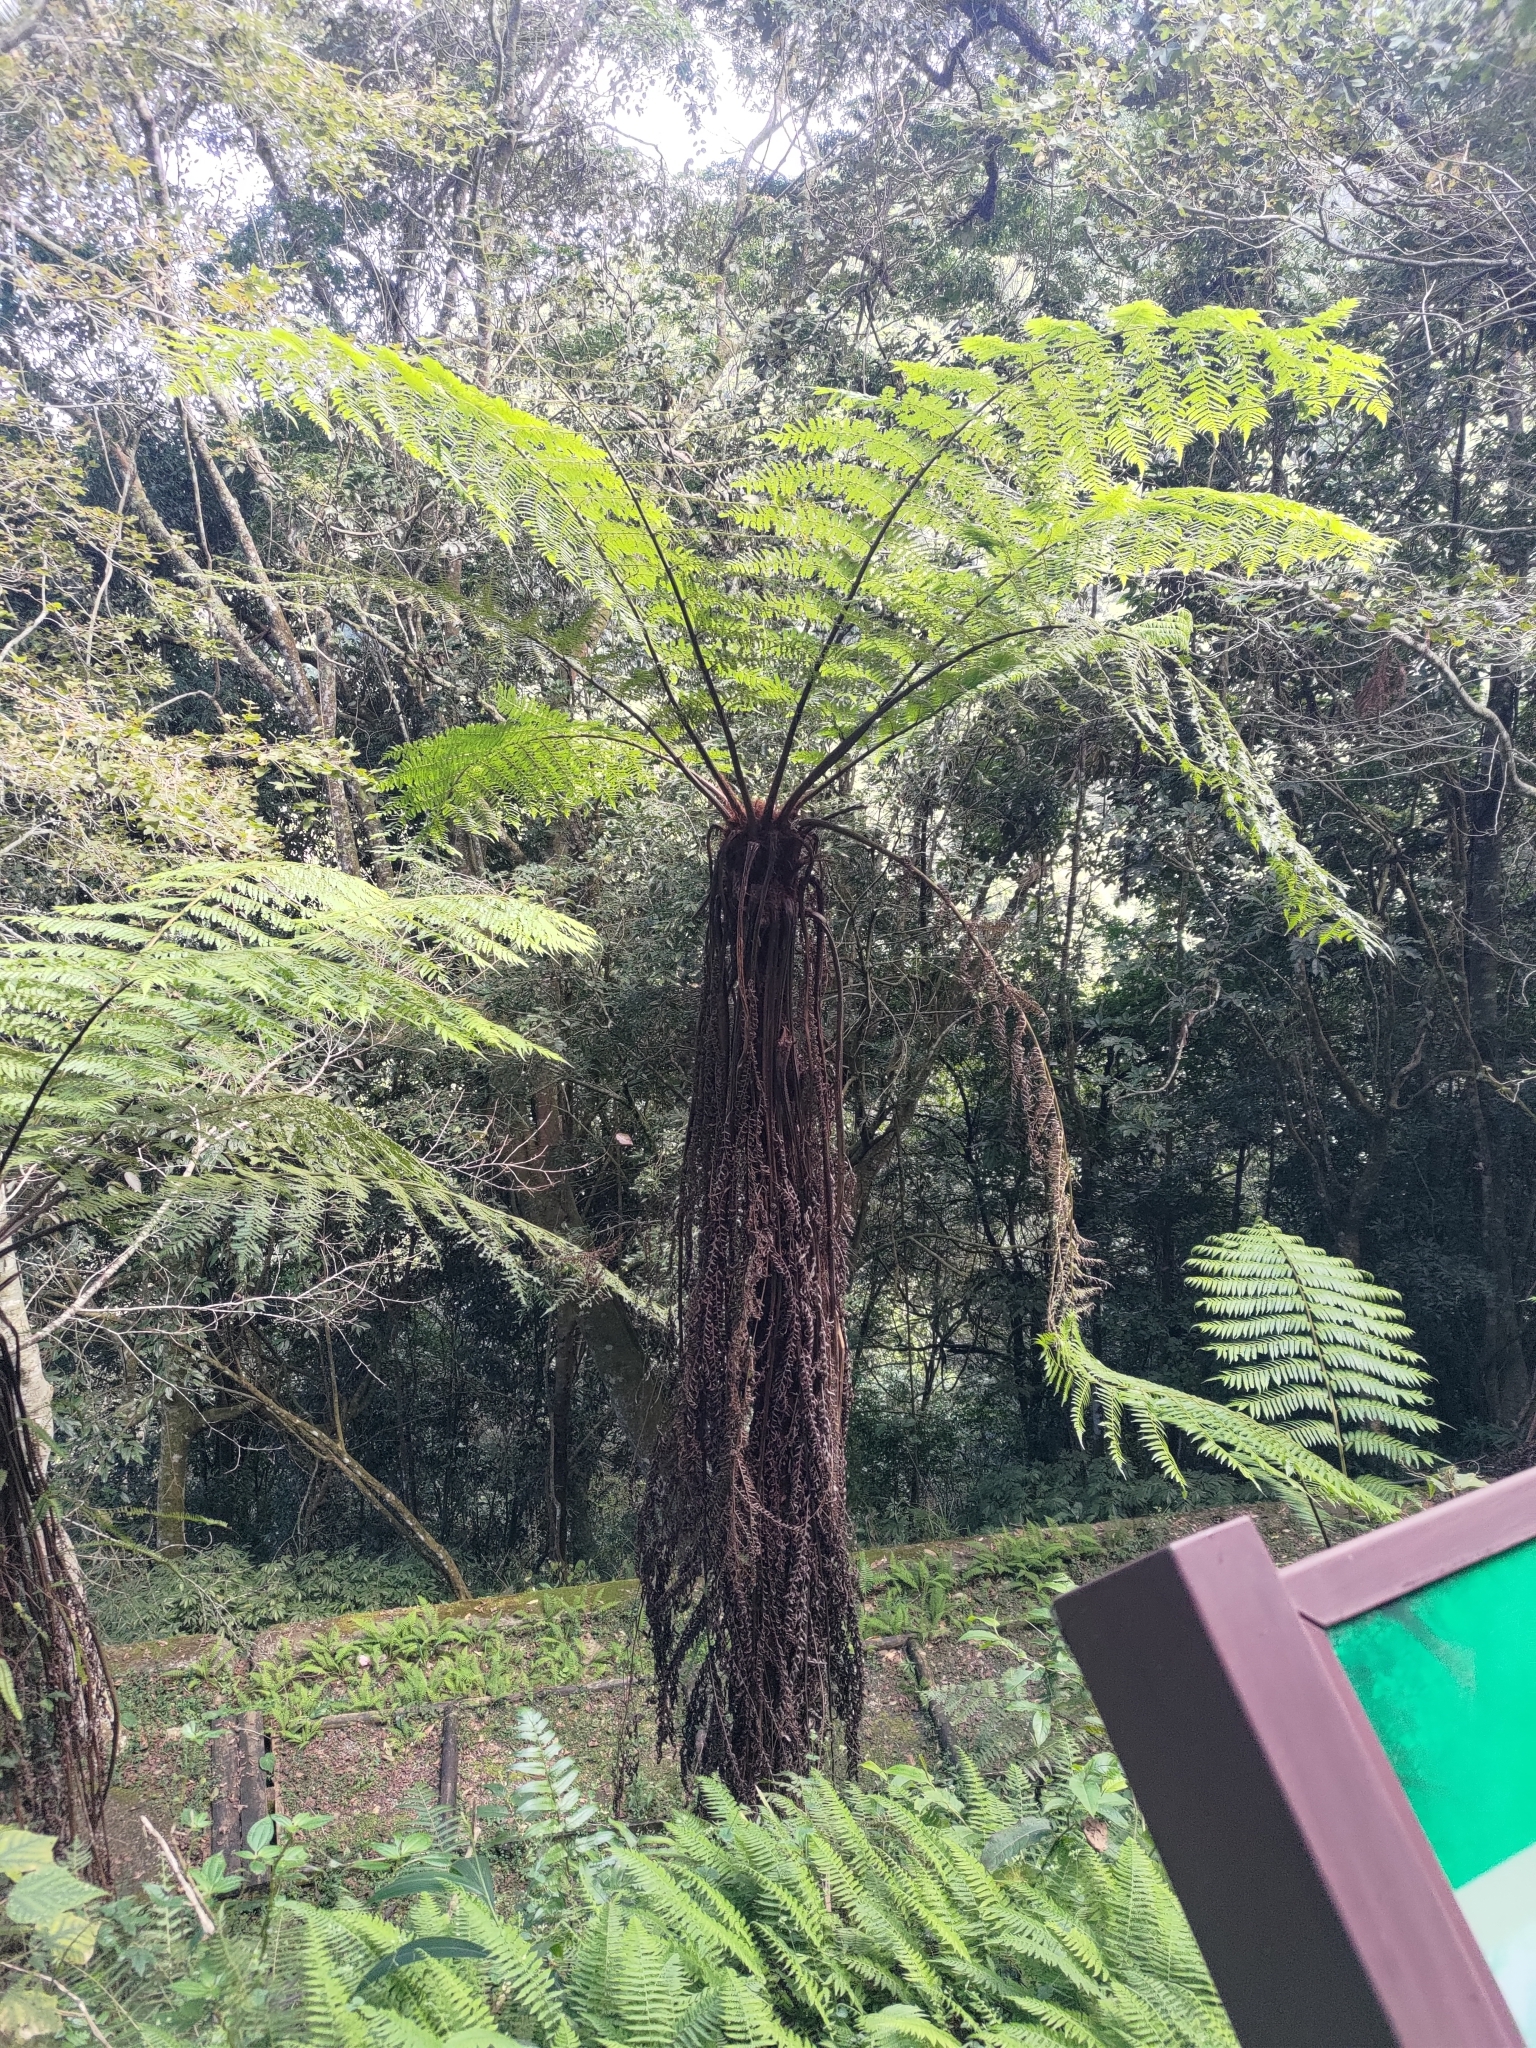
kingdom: Plantae
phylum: Tracheophyta
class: Polypodiopsida
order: Cyatheales
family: Cyatheaceae
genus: Alsophila
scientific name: Alsophila spinulosa
